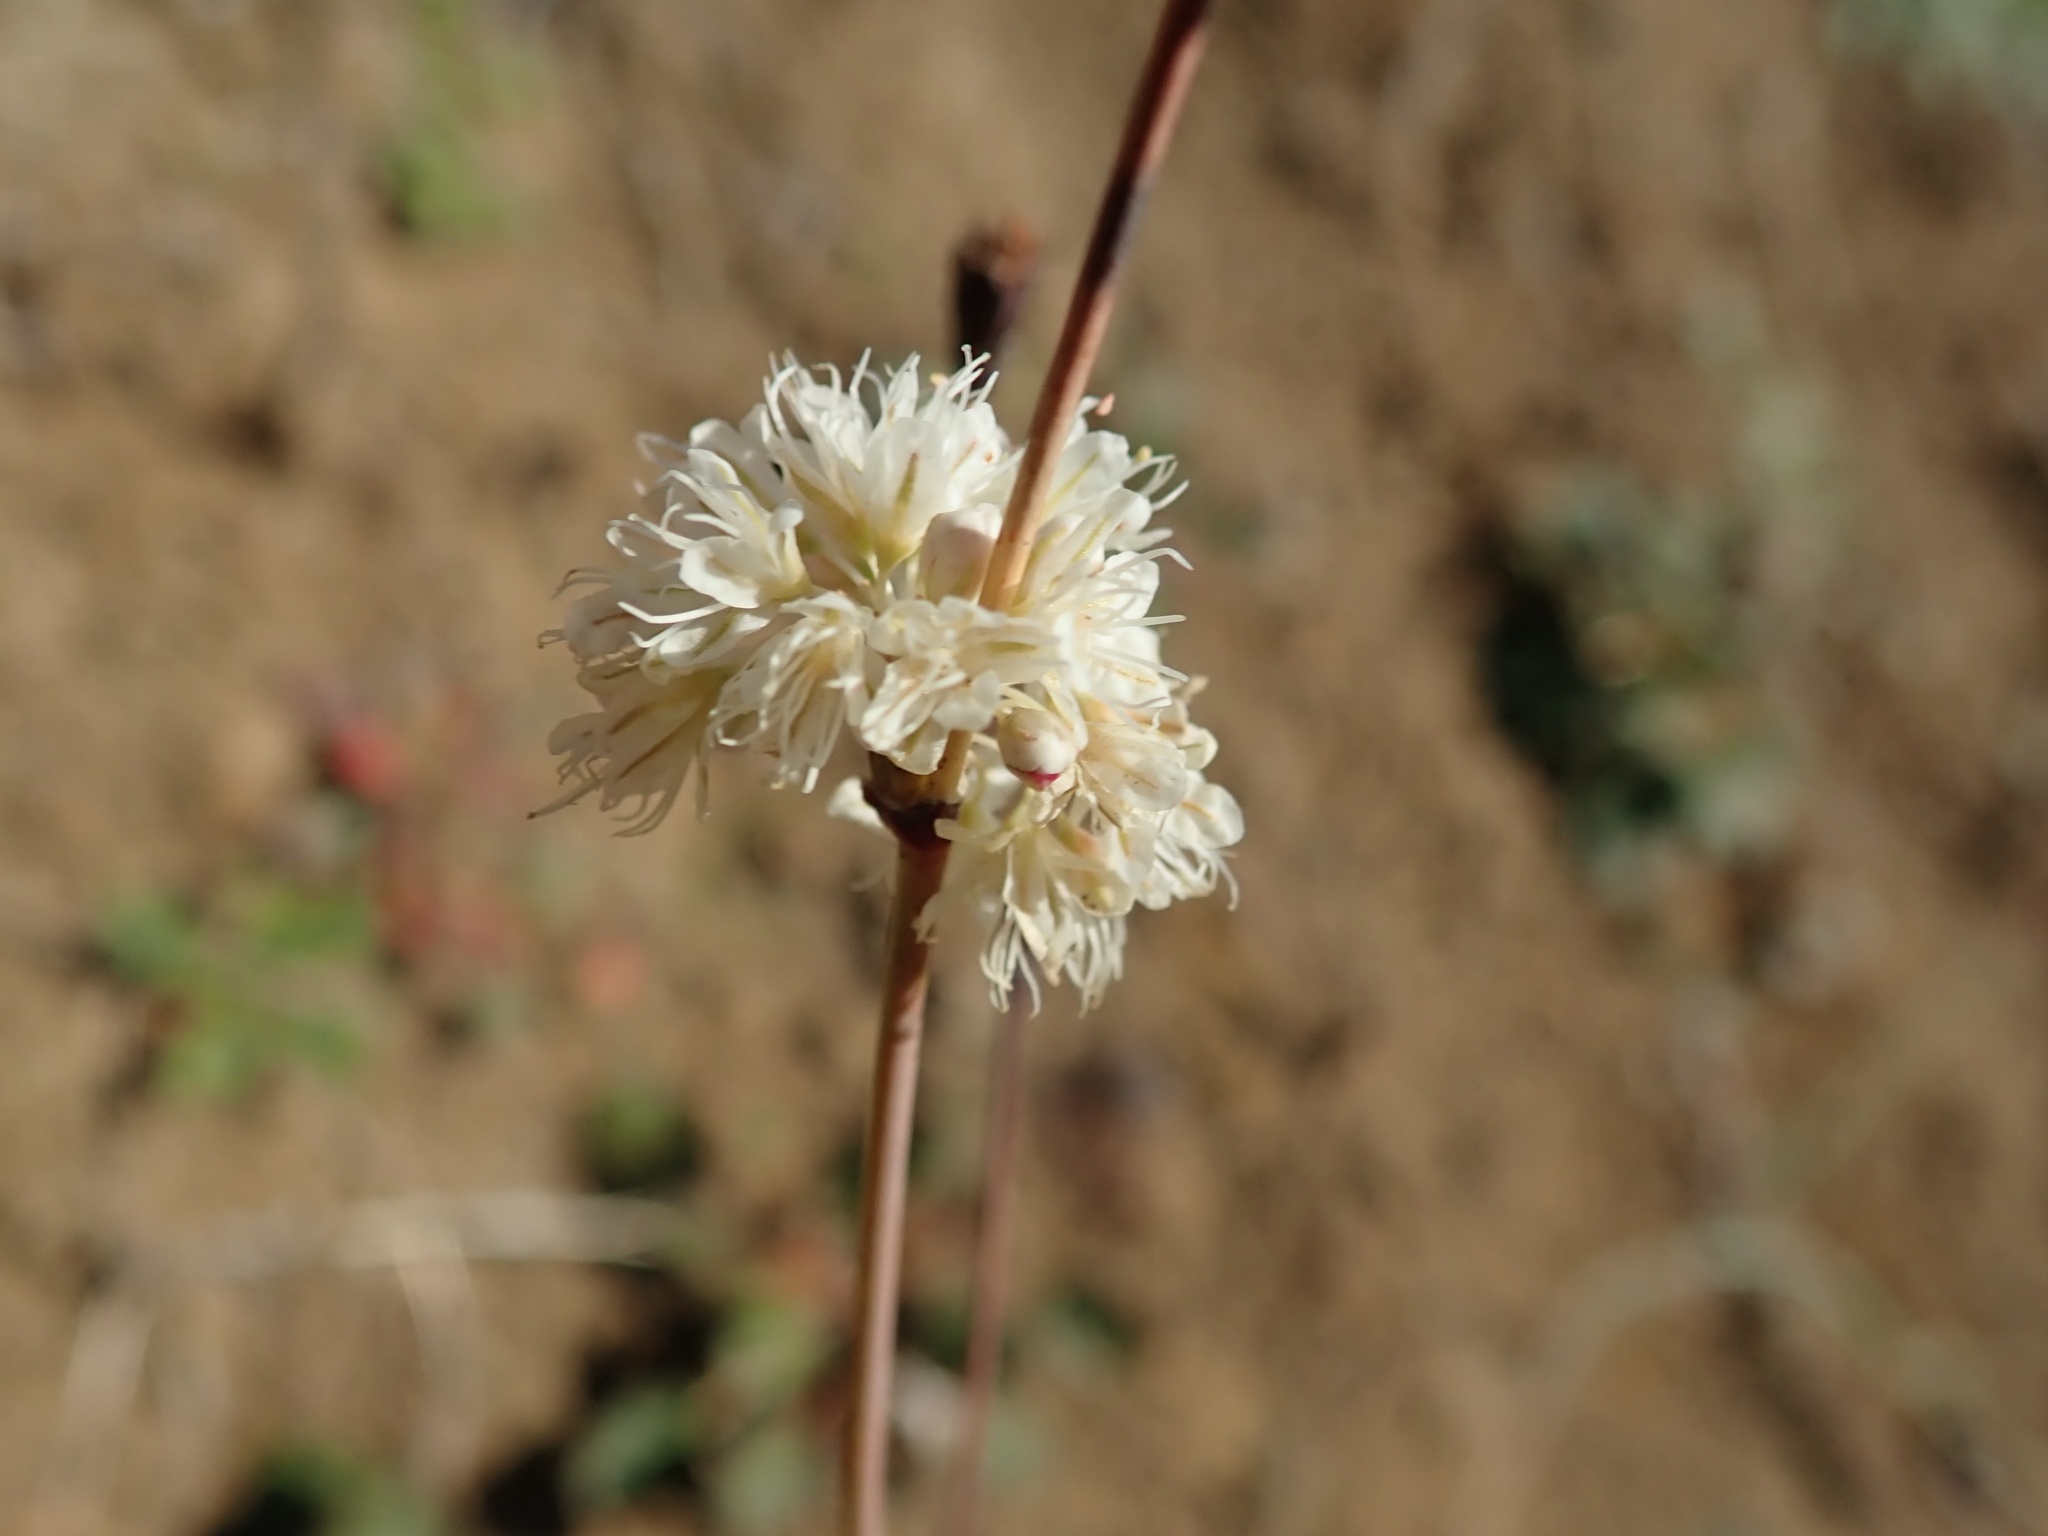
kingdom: Plantae
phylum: Tracheophyta
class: Magnoliopsida
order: Caryophyllales
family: Polygonaceae
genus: Eriogonum
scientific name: Eriogonum nudum
